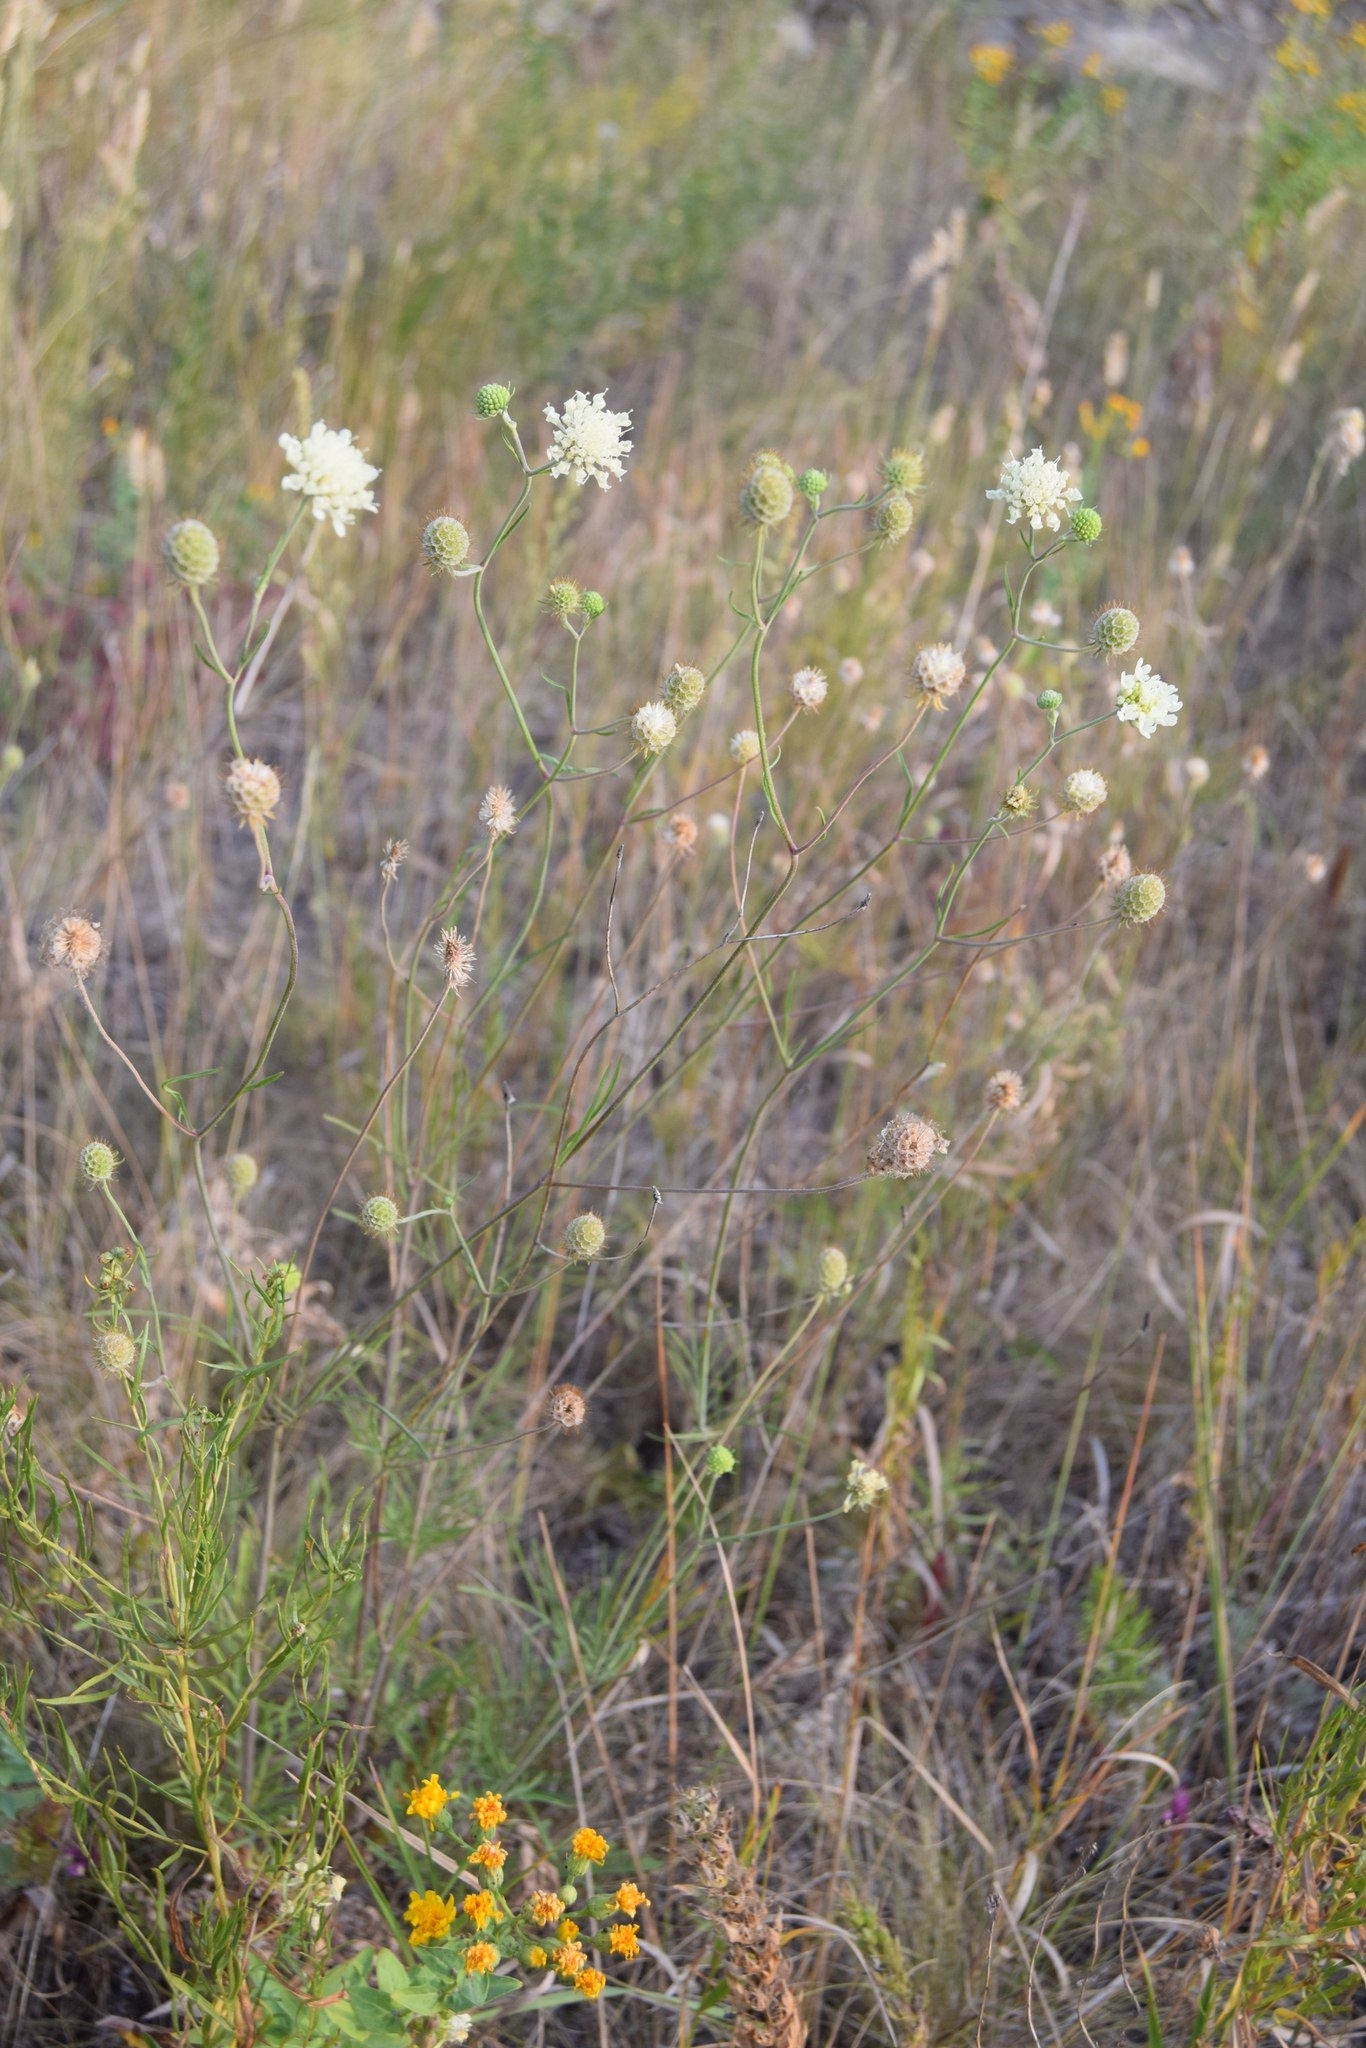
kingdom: Plantae
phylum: Tracheophyta
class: Magnoliopsida
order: Dipsacales
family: Caprifoliaceae
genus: Scabiosa
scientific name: Scabiosa ochroleuca
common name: Cream pincushions
